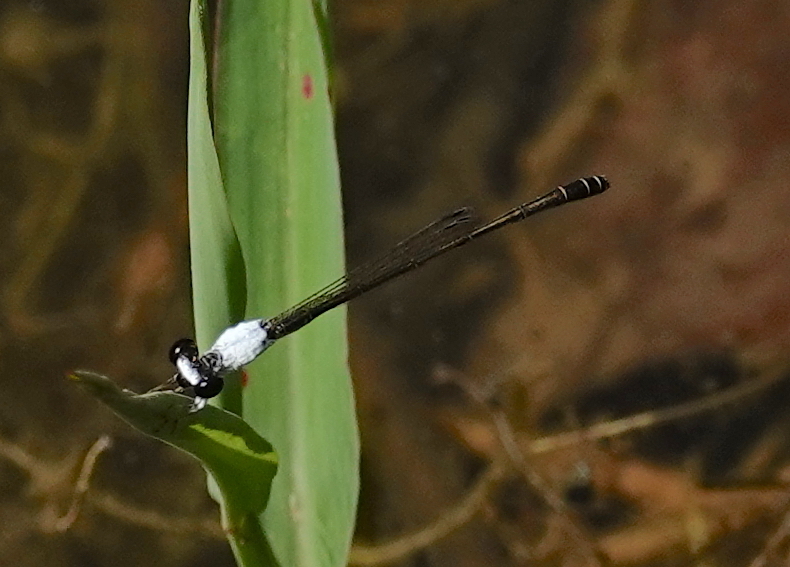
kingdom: Animalia
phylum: Arthropoda
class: Insecta
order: Odonata
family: Coenagrionidae
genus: Agriocnemis
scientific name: Agriocnemis femina
